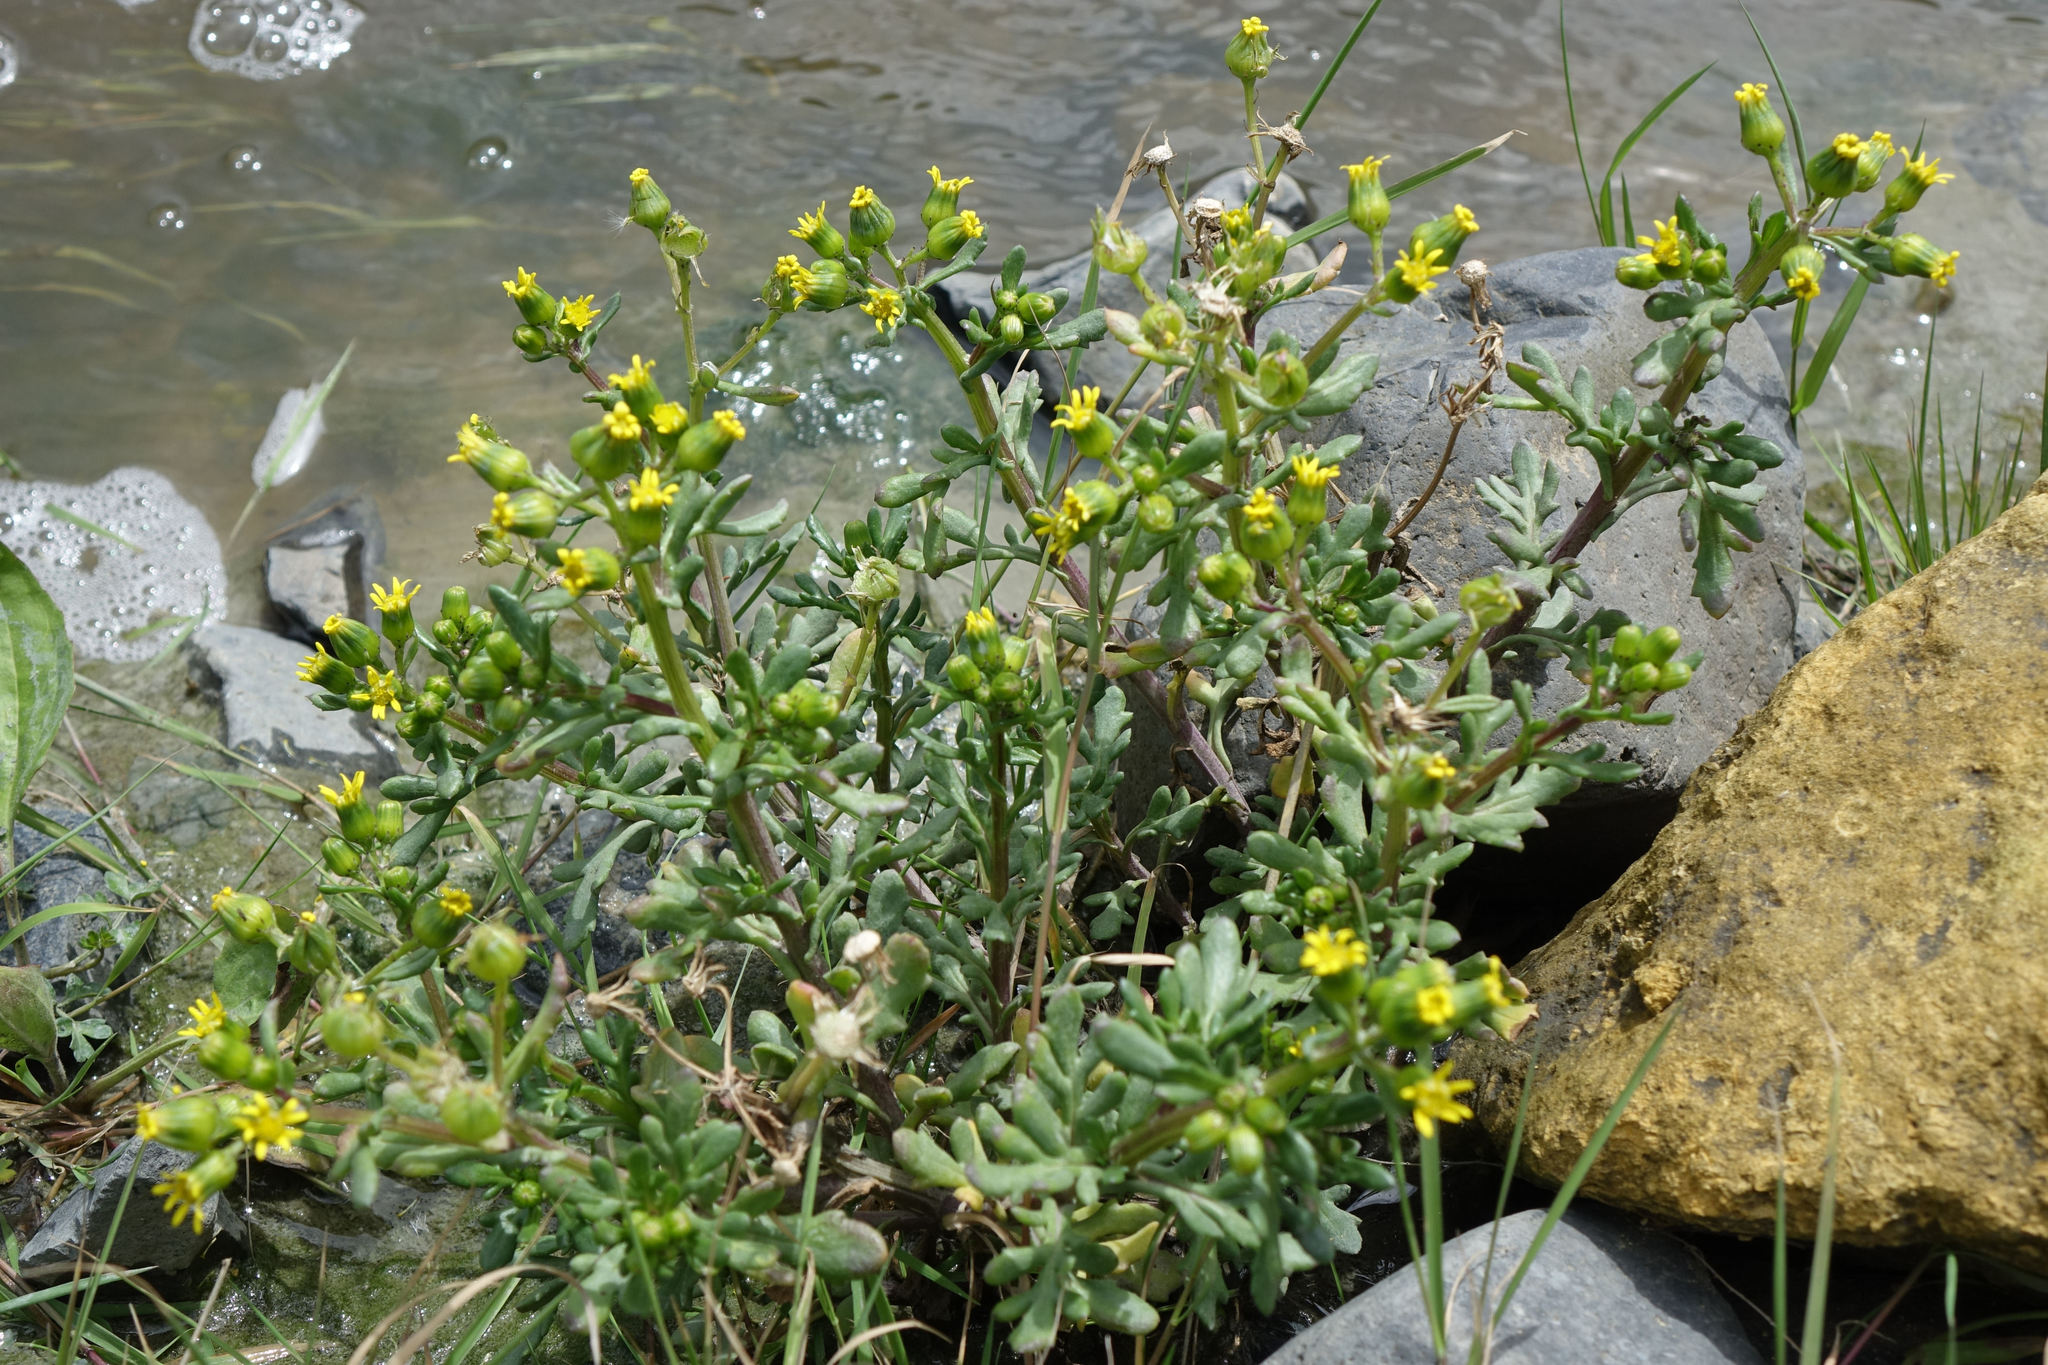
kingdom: Plantae
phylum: Tracheophyta
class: Magnoliopsida
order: Asterales
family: Asteraceae
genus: Senecio
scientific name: Senecio carnosulus
